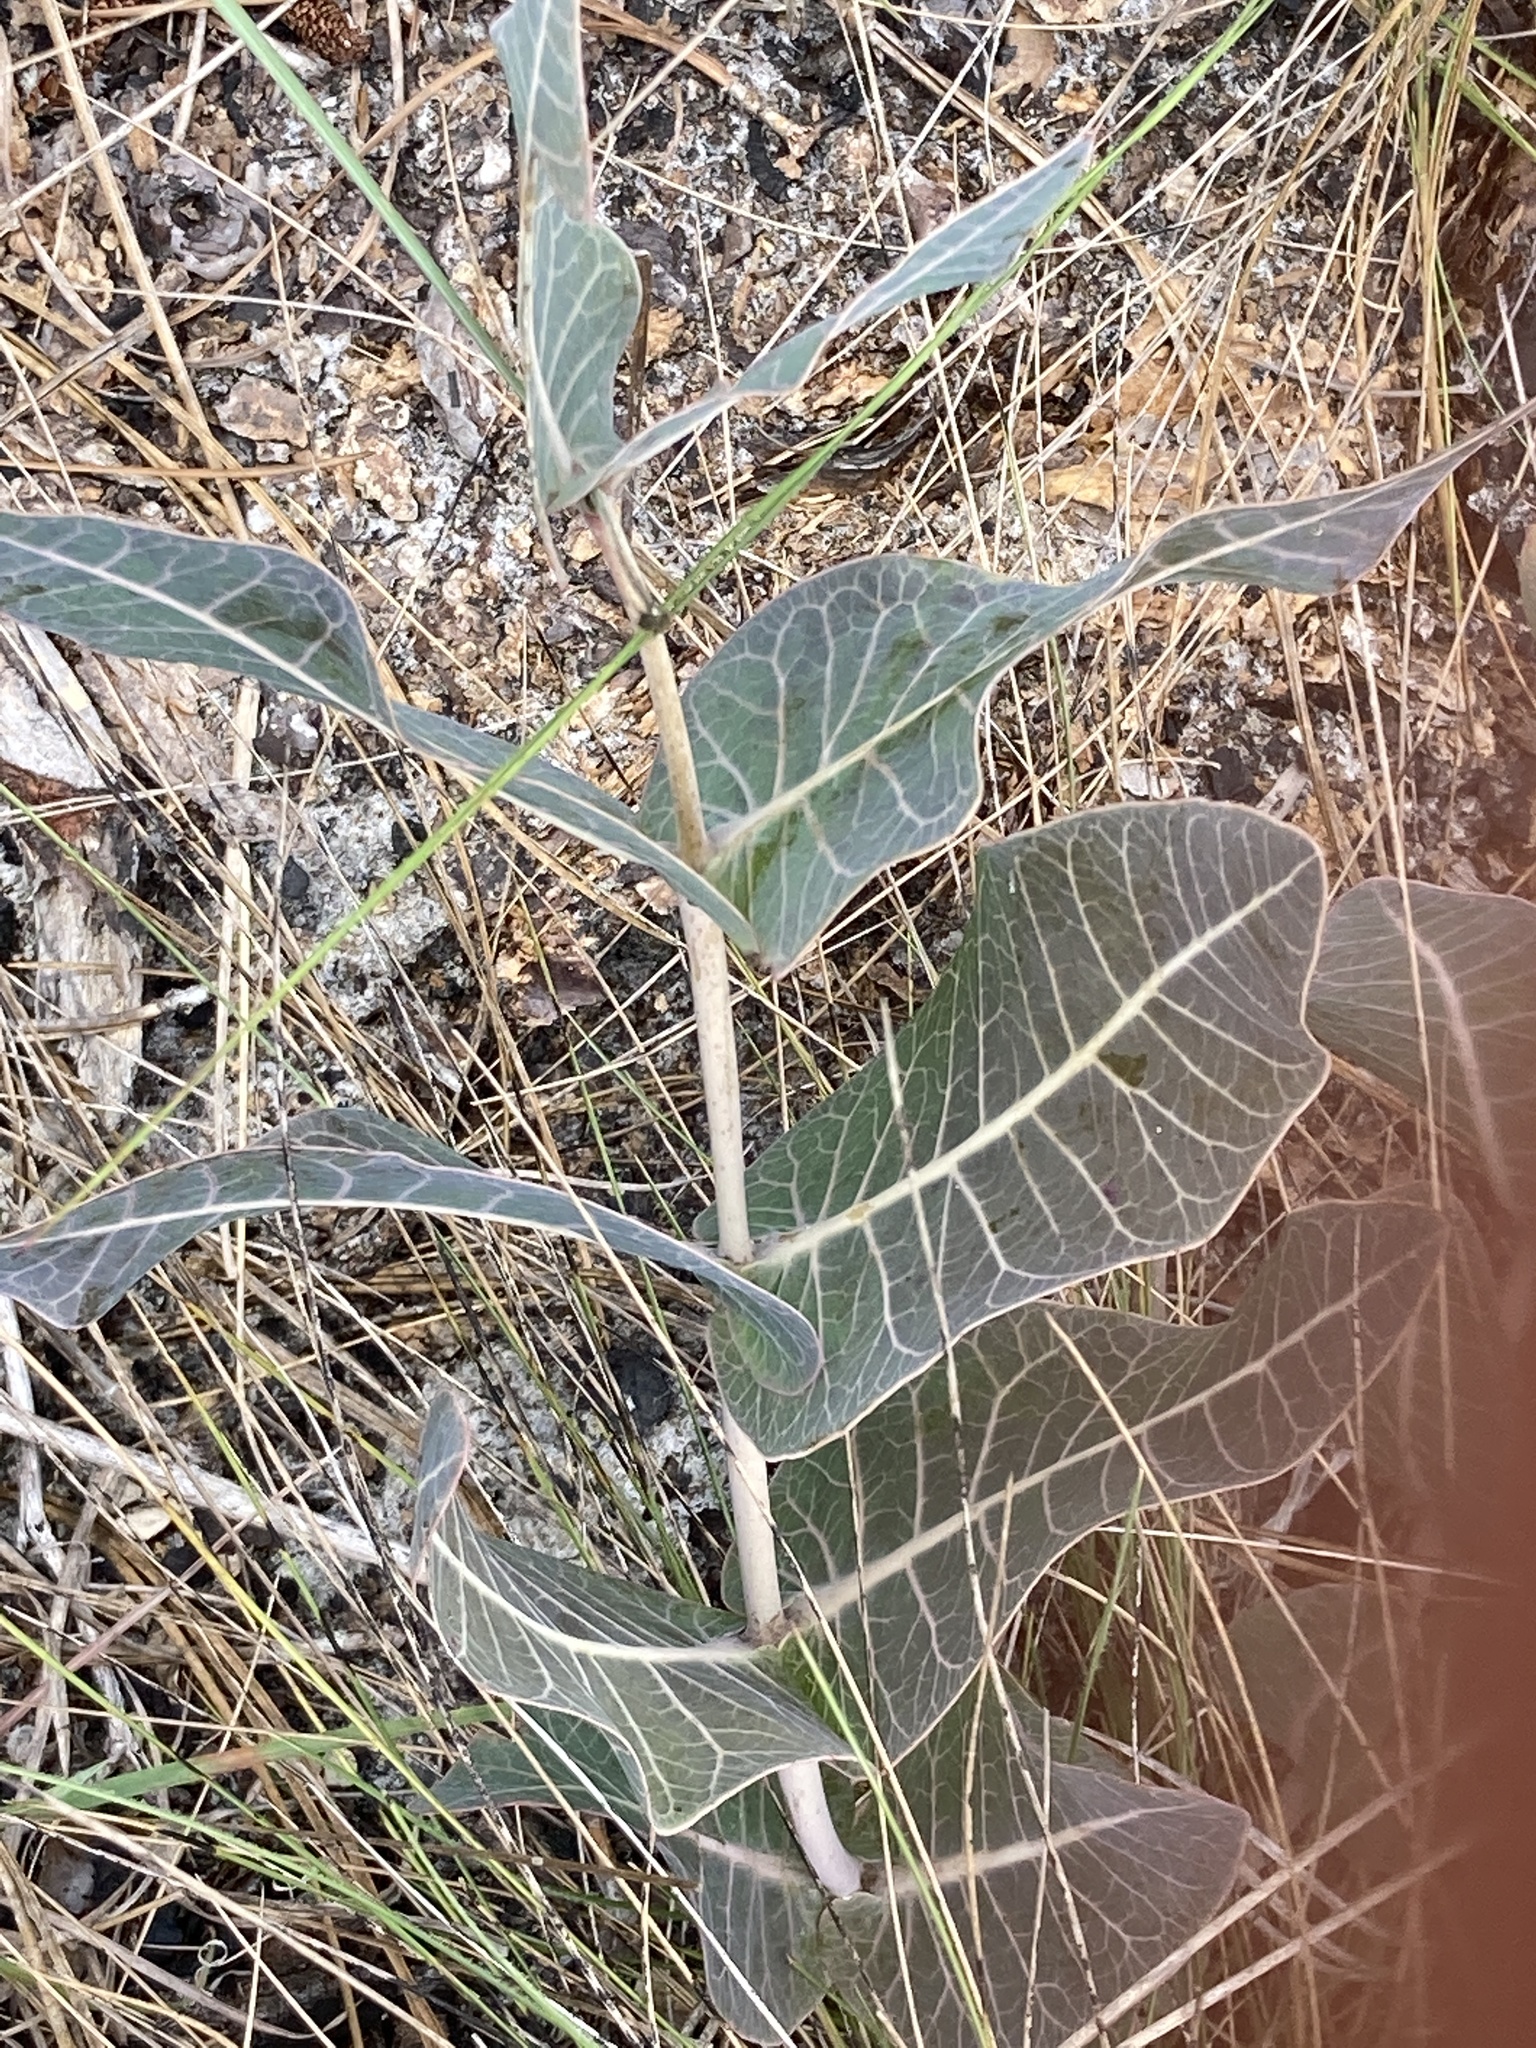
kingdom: Plantae
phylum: Tracheophyta
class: Magnoliopsida
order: Gentianales
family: Apocynaceae
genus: Asclepias
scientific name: Asclepias humistrata
